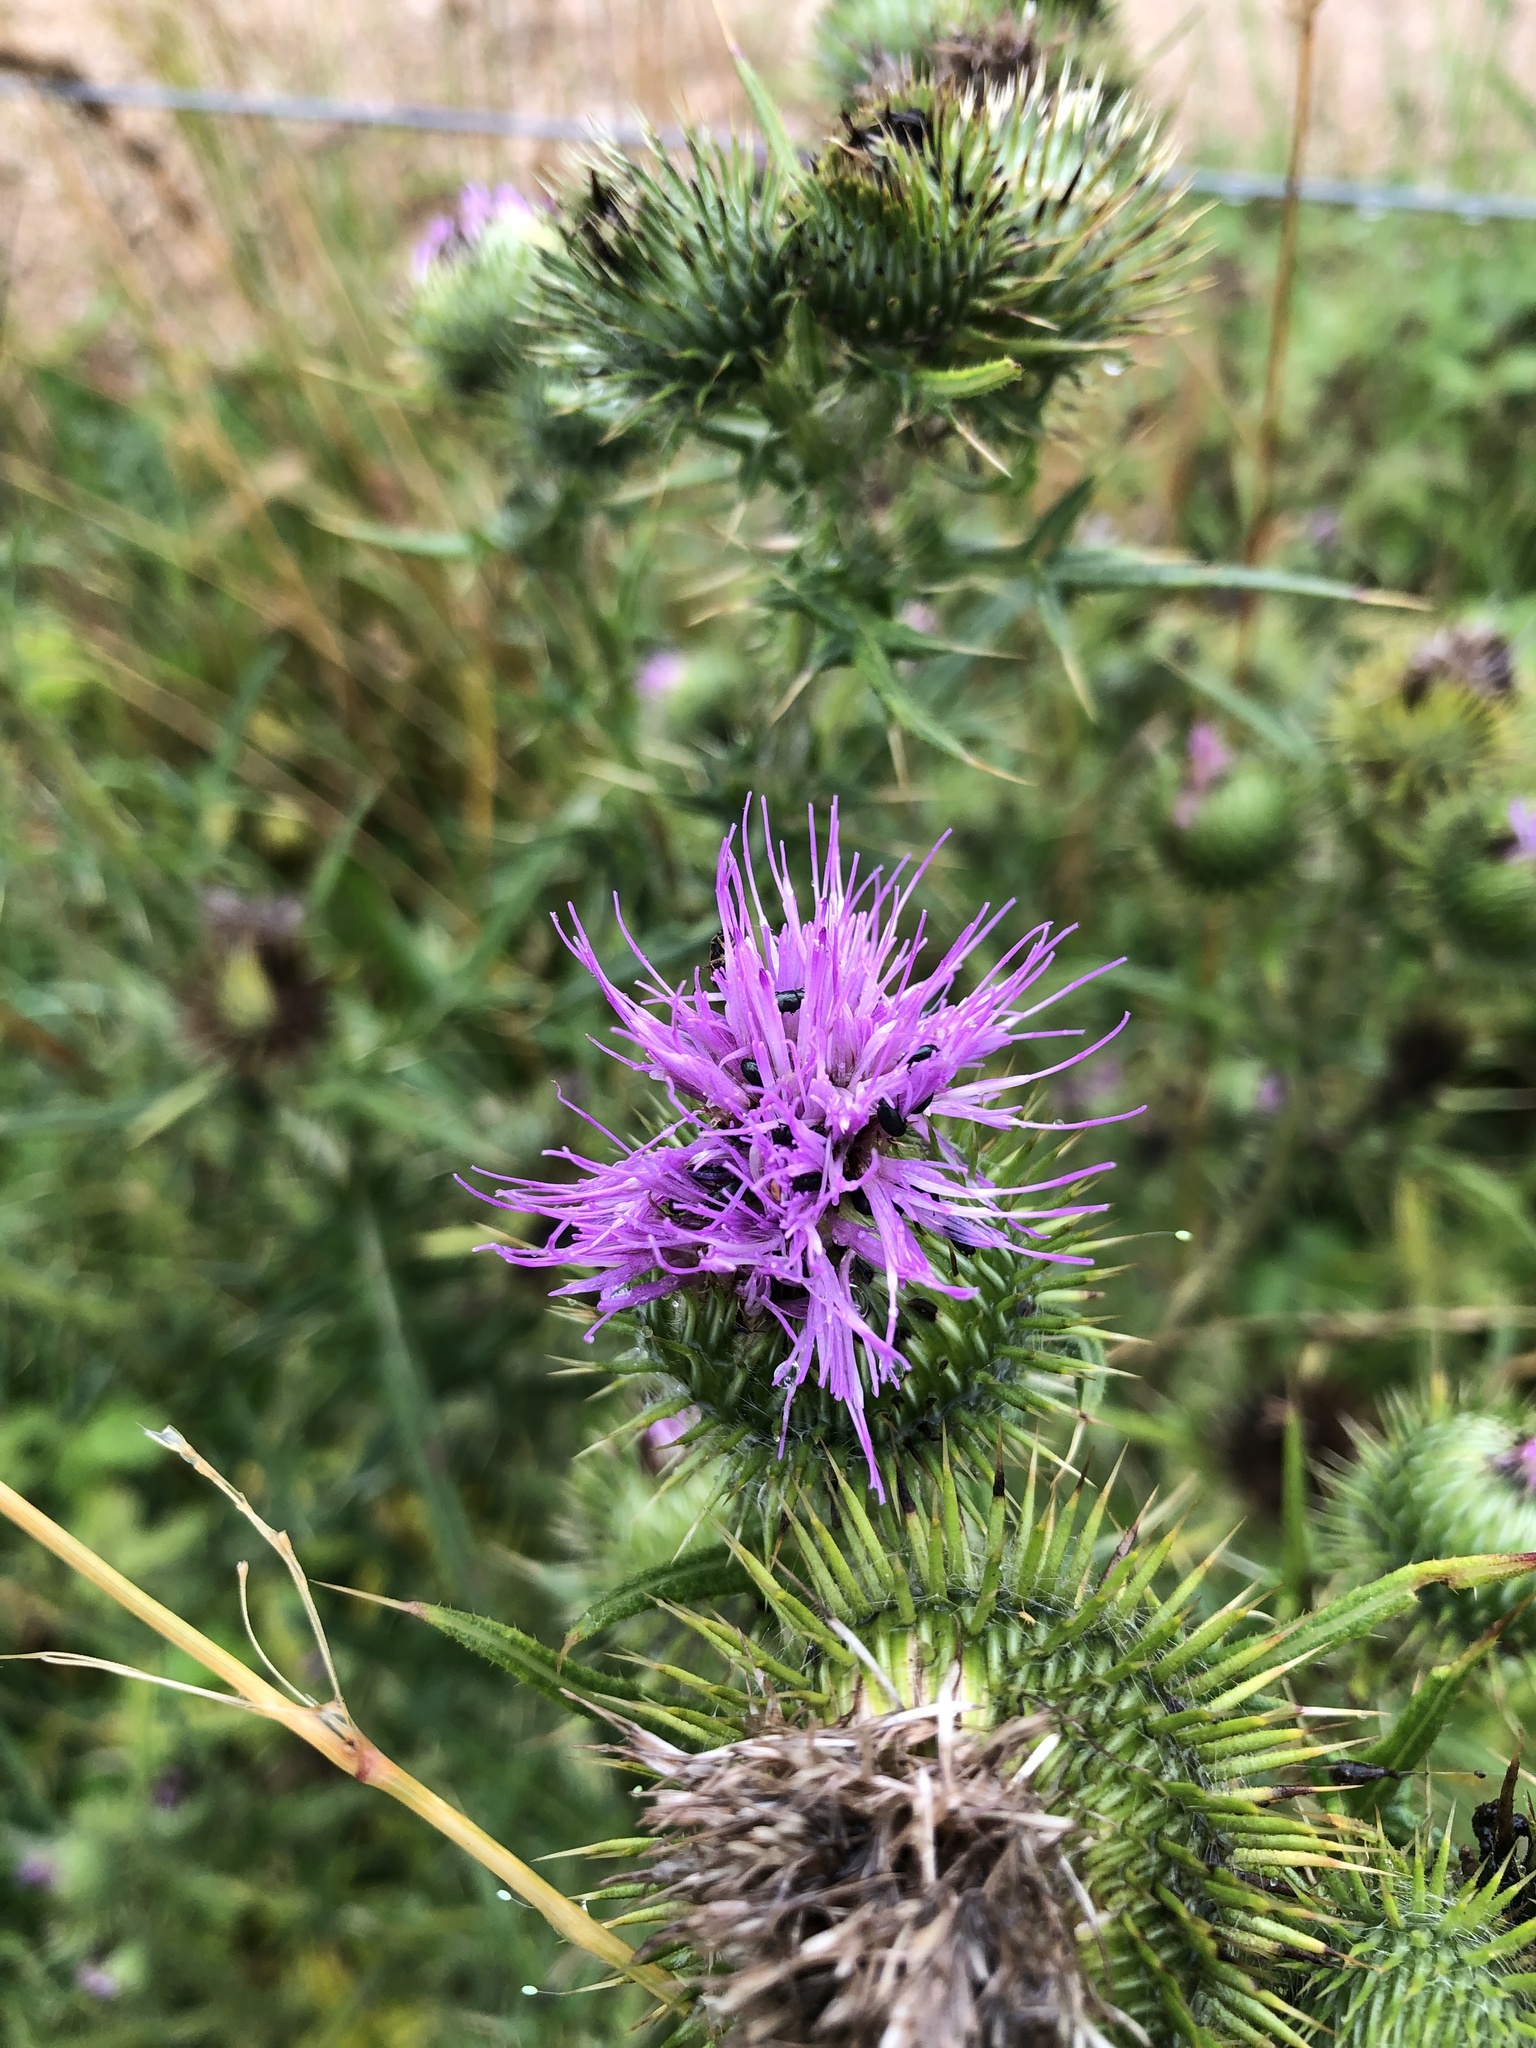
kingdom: Plantae
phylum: Tracheophyta
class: Magnoliopsida
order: Asterales
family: Asteraceae
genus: Cirsium
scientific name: Cirsium vulgare
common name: Bull thistle
